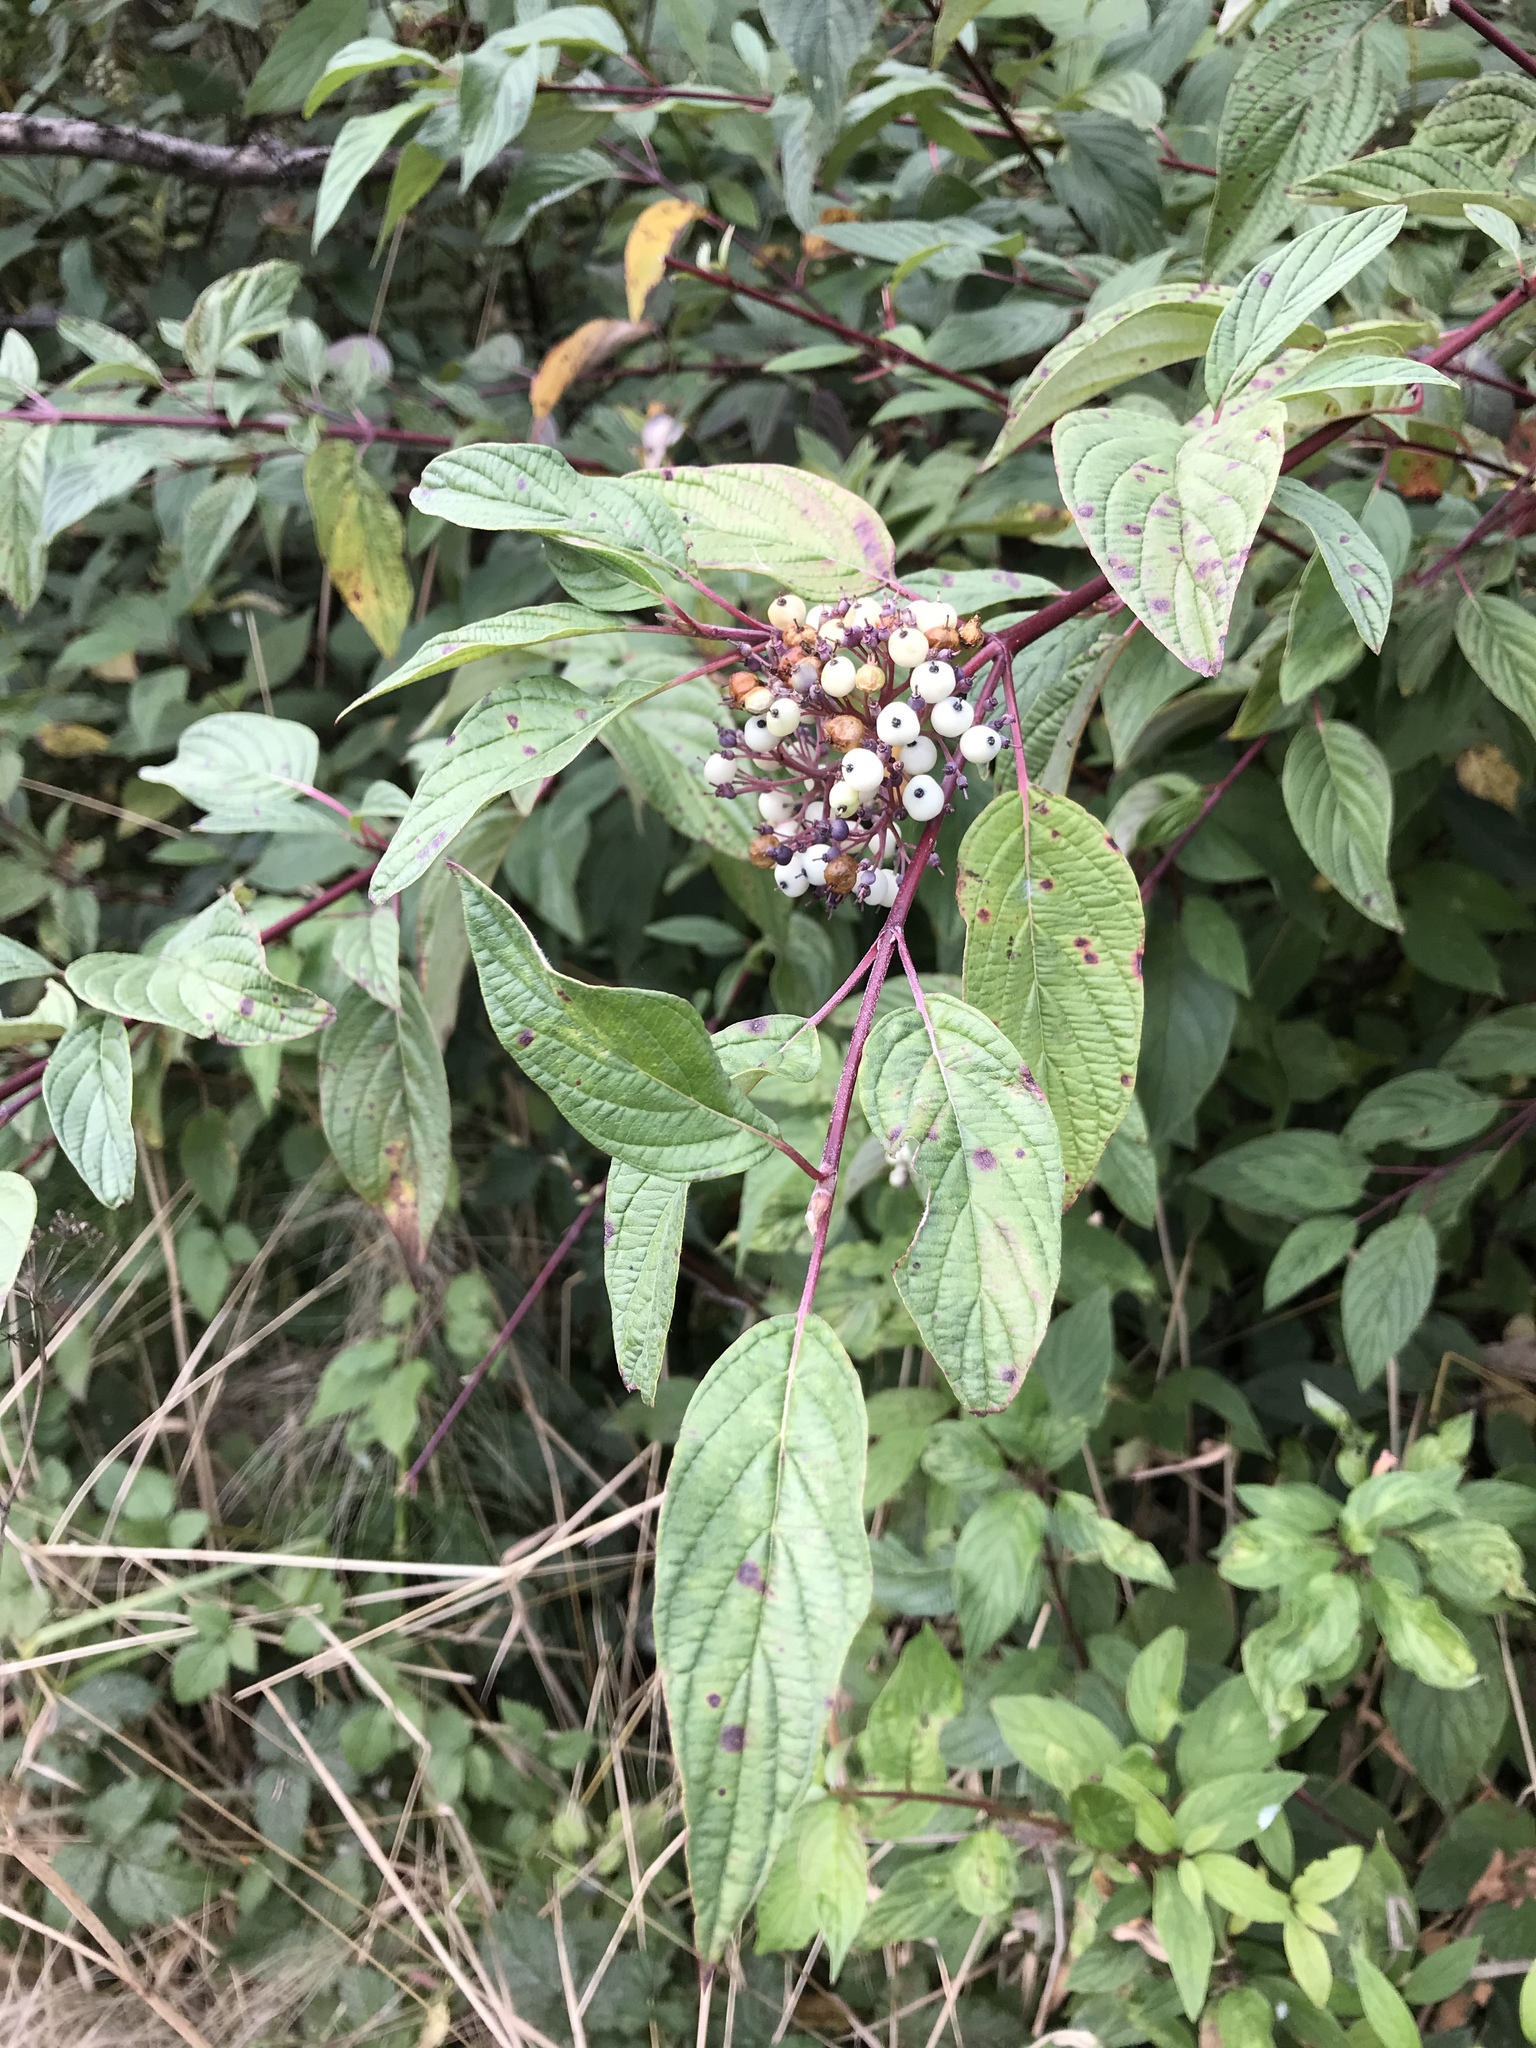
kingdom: Plantae
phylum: Tracheophyta
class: Magnoliopsida
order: Cornales
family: Cornaceae
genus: Cornus
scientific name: Cornus sericea
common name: Red-osier dogwood
